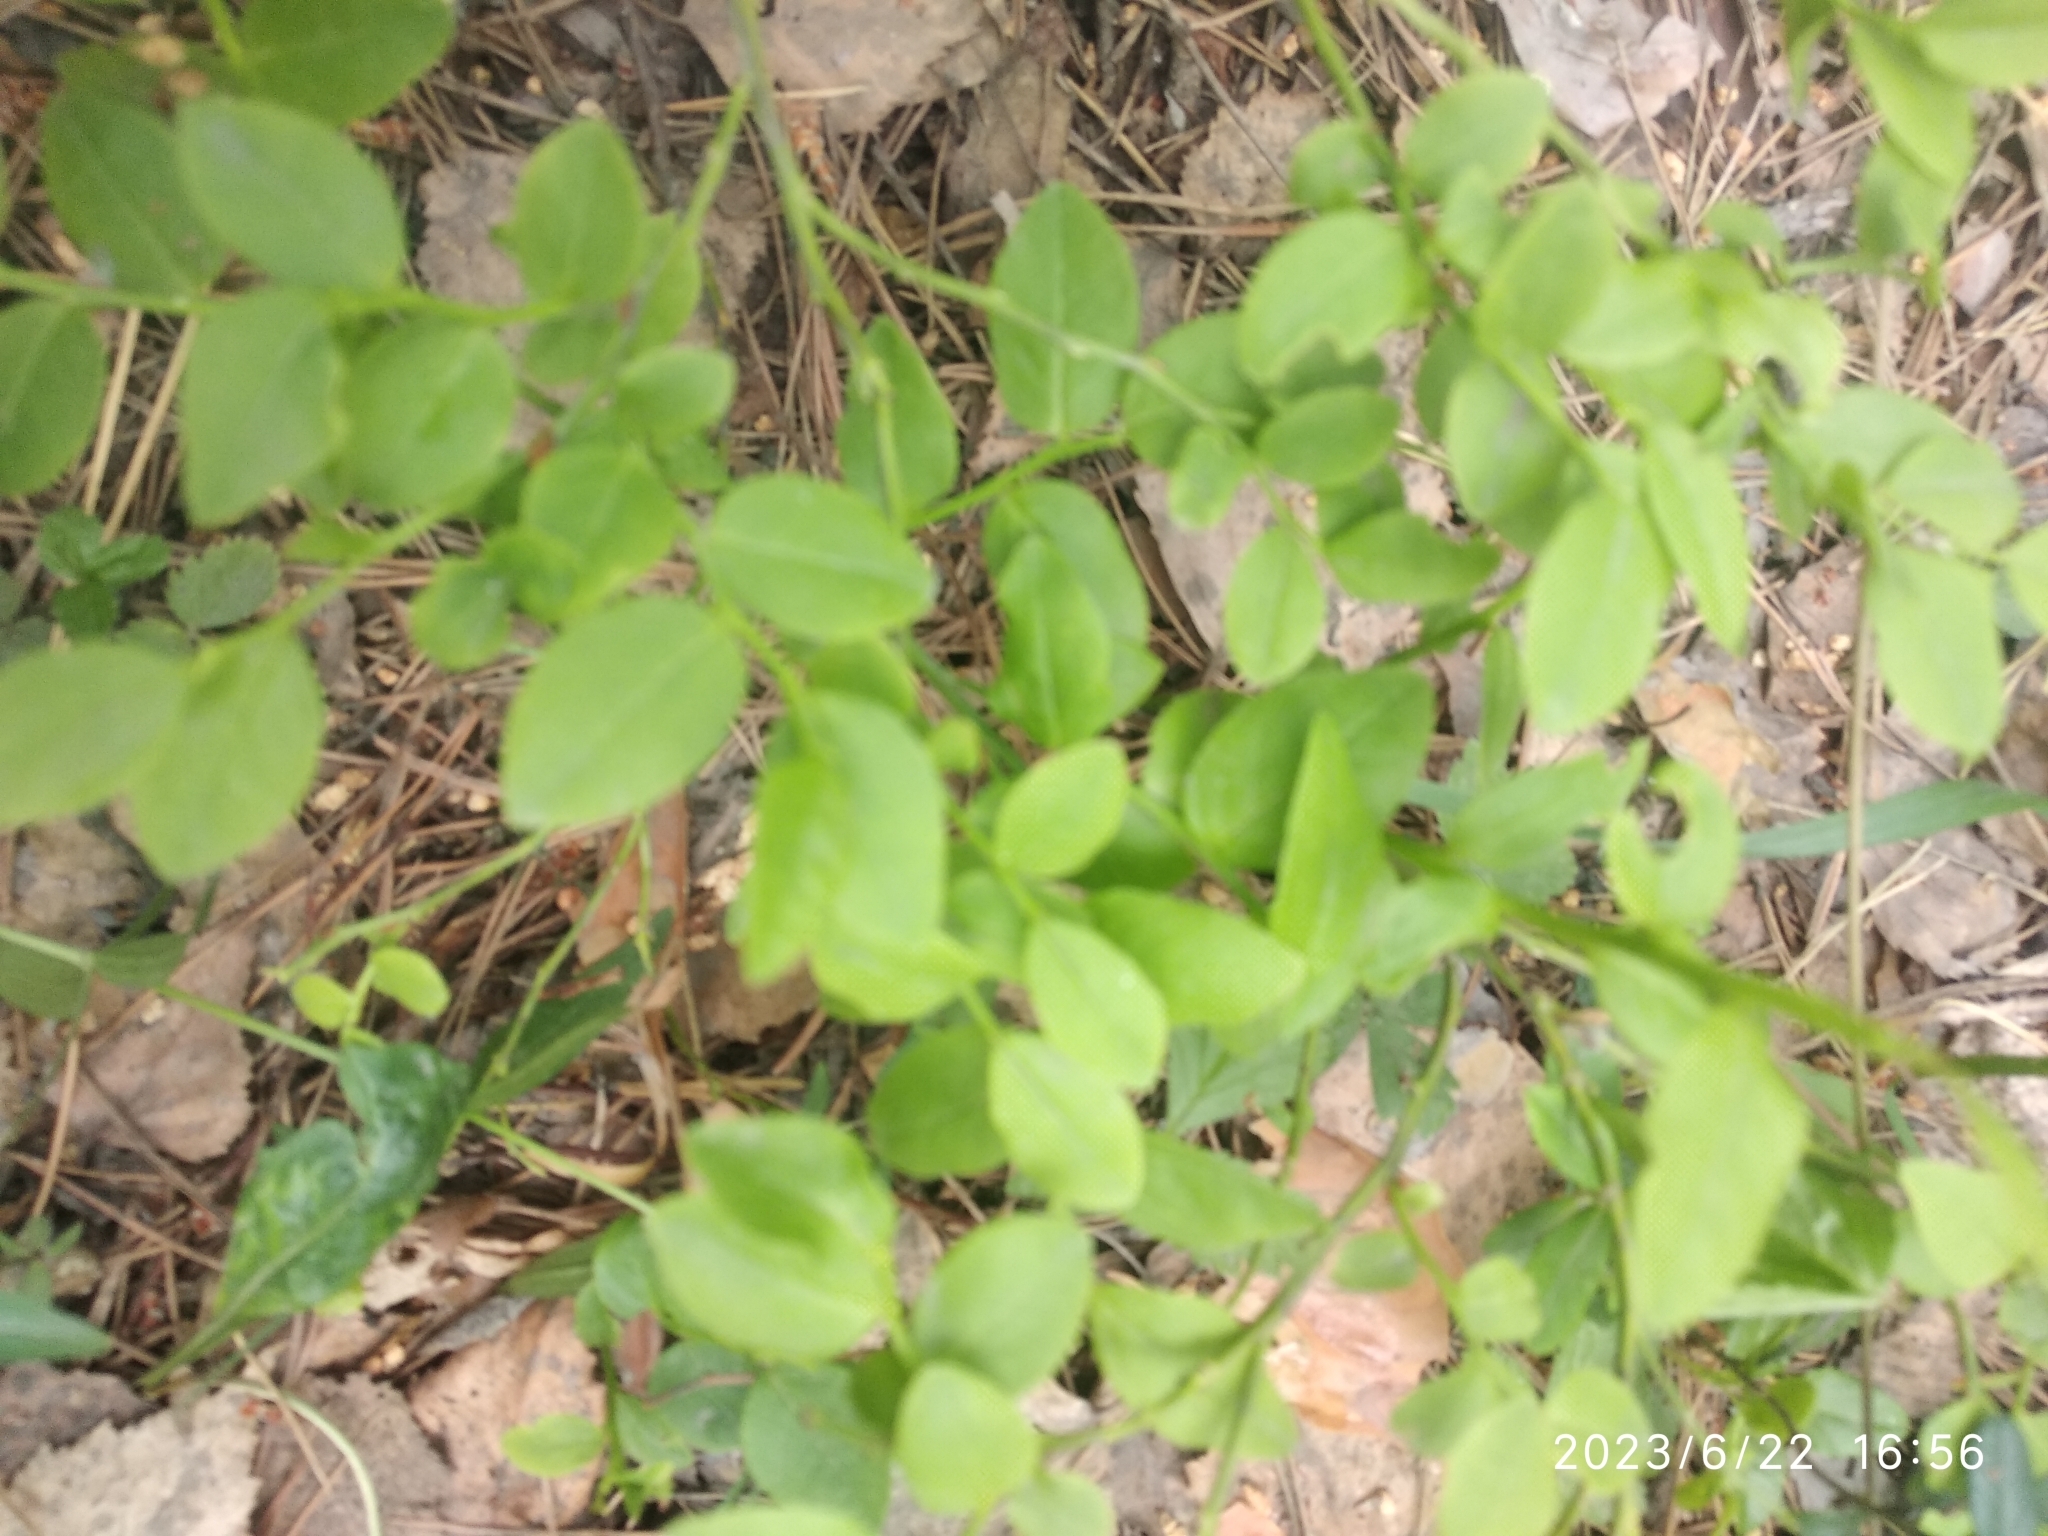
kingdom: Plantae
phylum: Tracheophyta
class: Magnoliopsida
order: Ericales
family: Ericaceae
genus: Vaccinium
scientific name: Vaccinium myrtillus
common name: Bilberry
